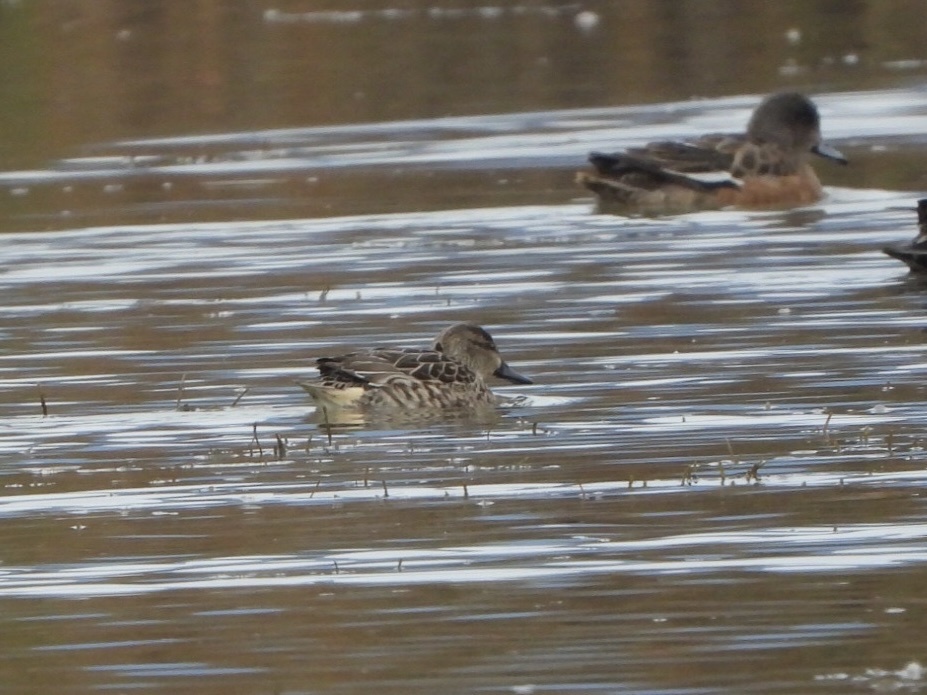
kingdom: Animalia
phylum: Chordata
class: Aves
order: Anseriformes
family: Anatidae
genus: Anas
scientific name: Anas crecca
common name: Eurasian teal
